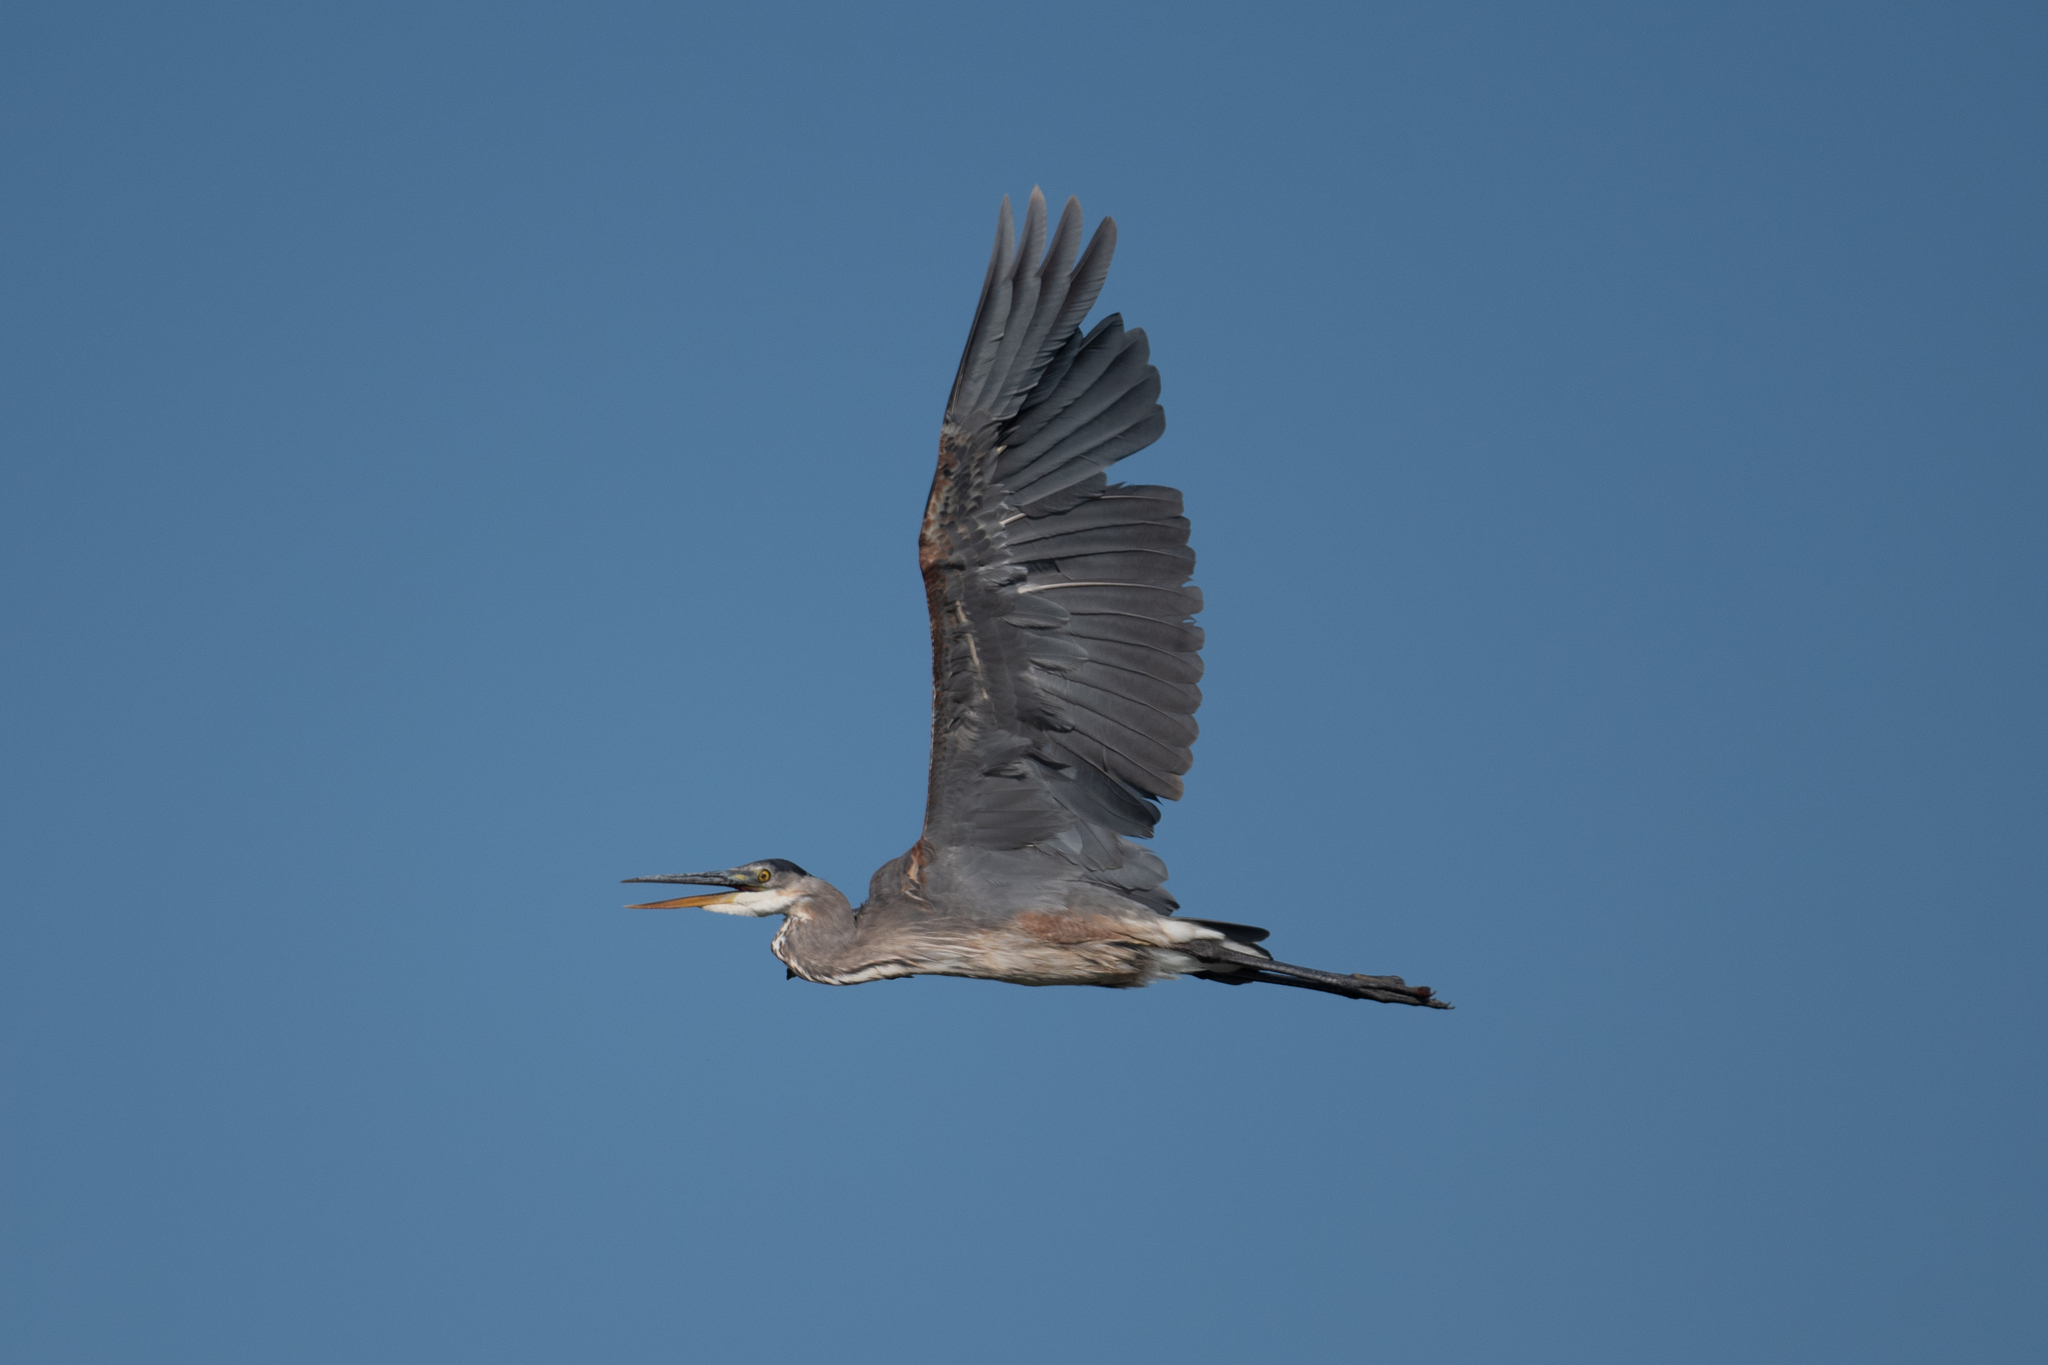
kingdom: Animalia
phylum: Chordata
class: Aves
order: Pelecaniformes
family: Ardeidae
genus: Ardea
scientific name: Ardea herodias
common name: Great blue heron
